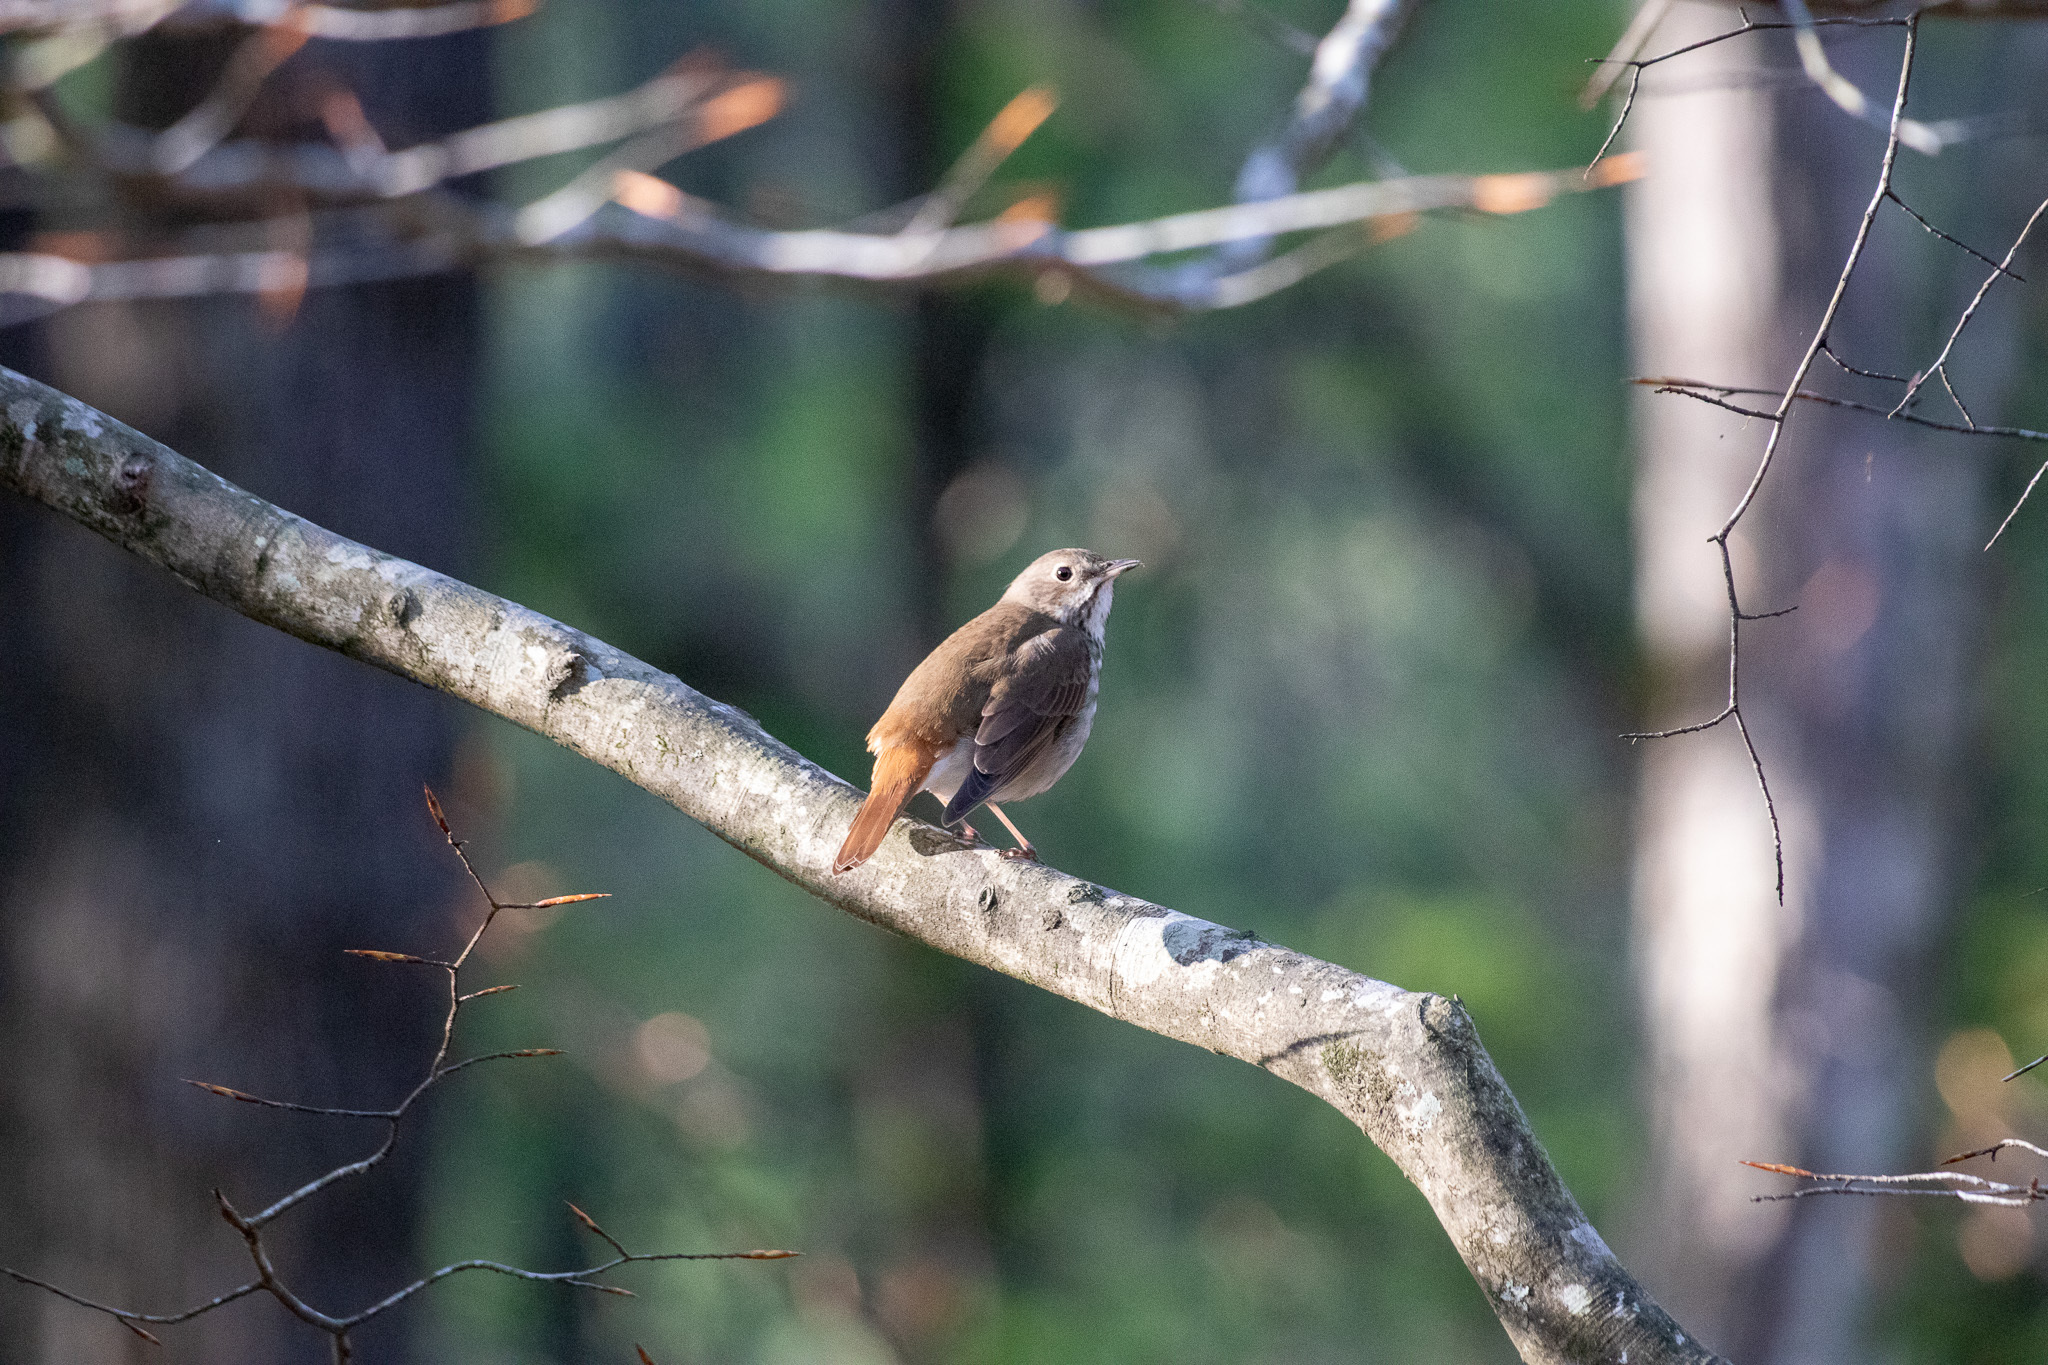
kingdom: Animalia
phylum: Chordata
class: Aves
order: Passeriformes
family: Turdidae
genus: Catharus
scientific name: Catharus guttatus
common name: Hermit thrush
